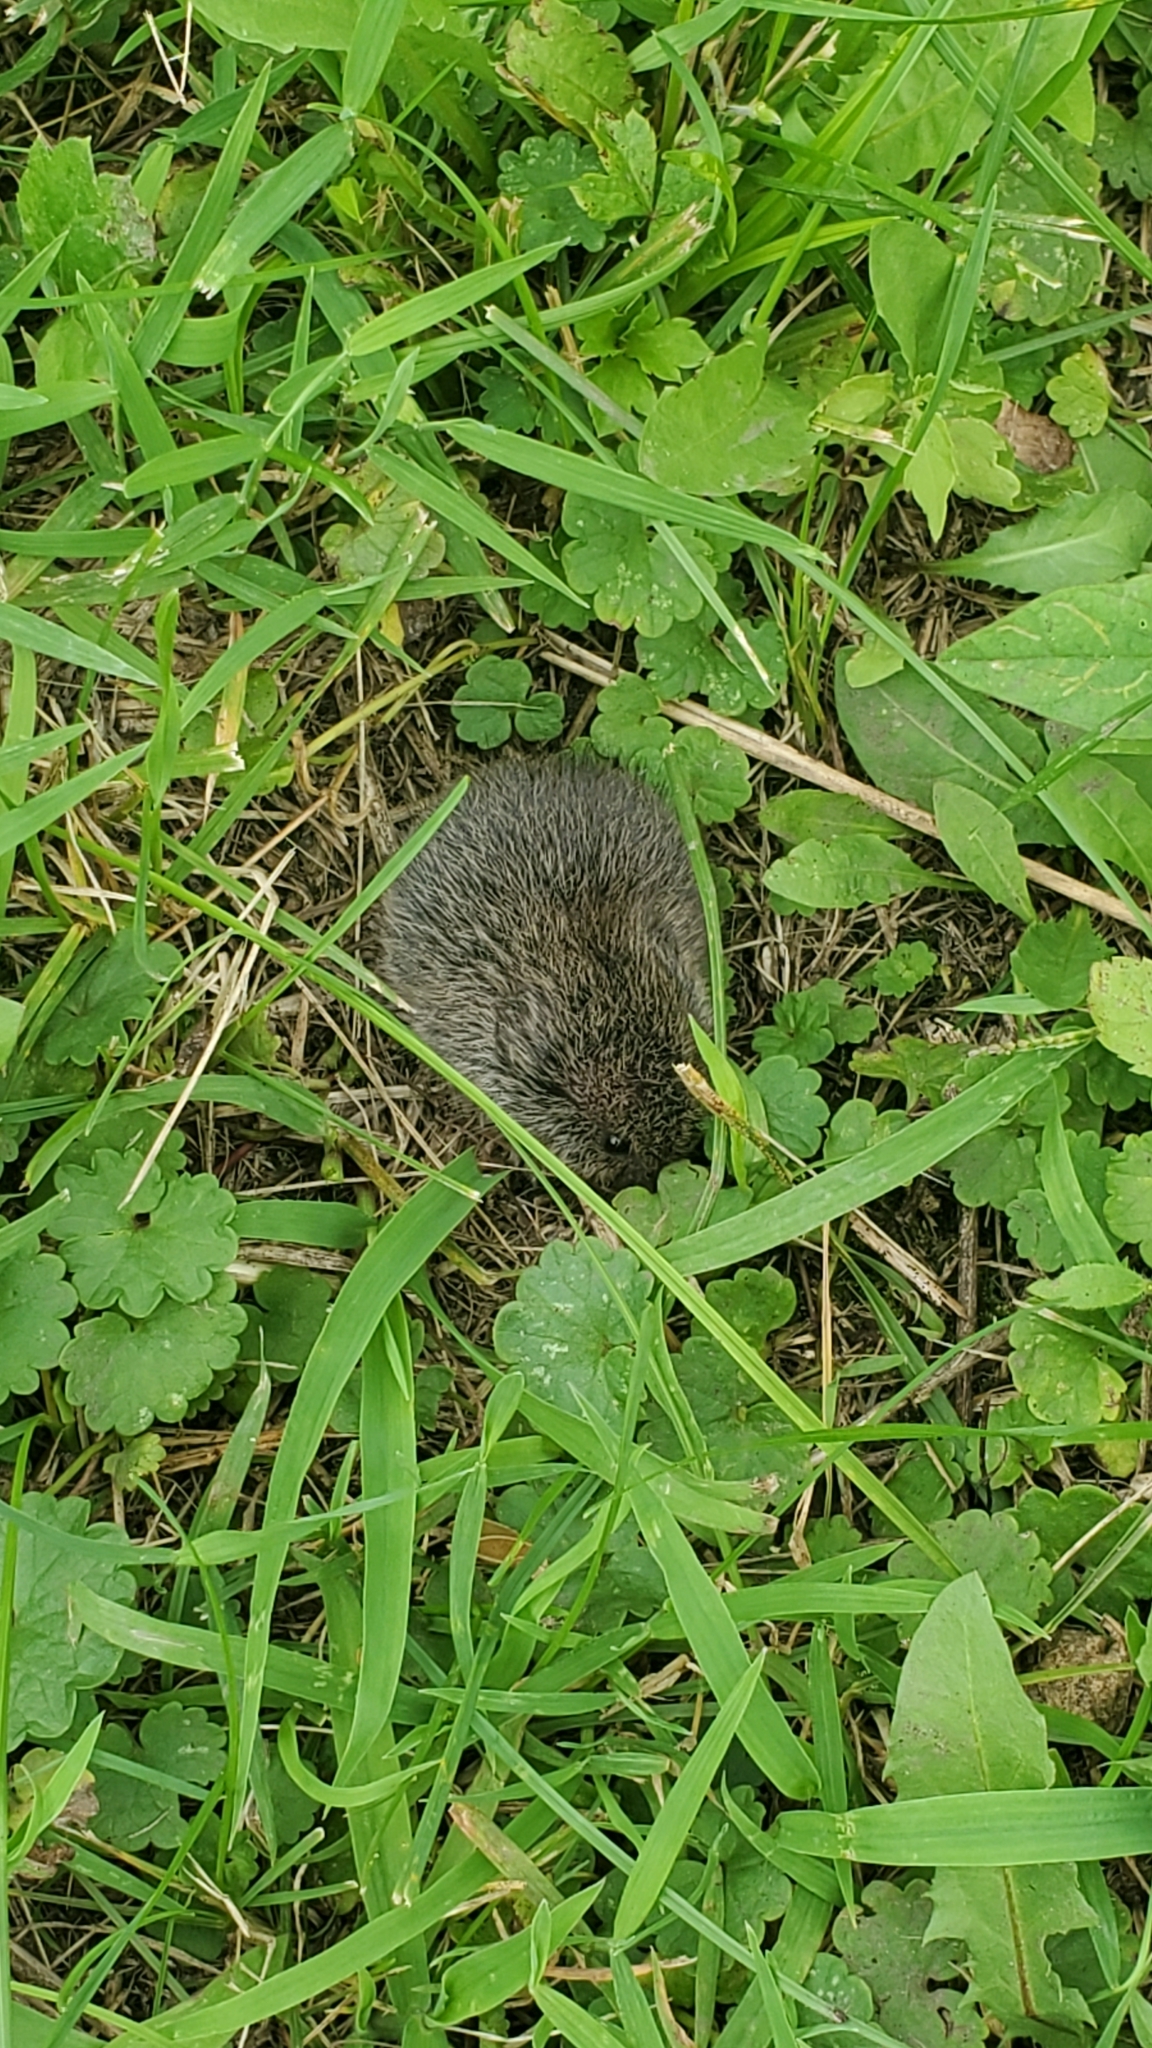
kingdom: Animalia
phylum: Chordata
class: Mammalia
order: Rodentia
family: Cricetidae
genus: Microtus
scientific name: Microtus pennsylvanicus
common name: Meadow vole
